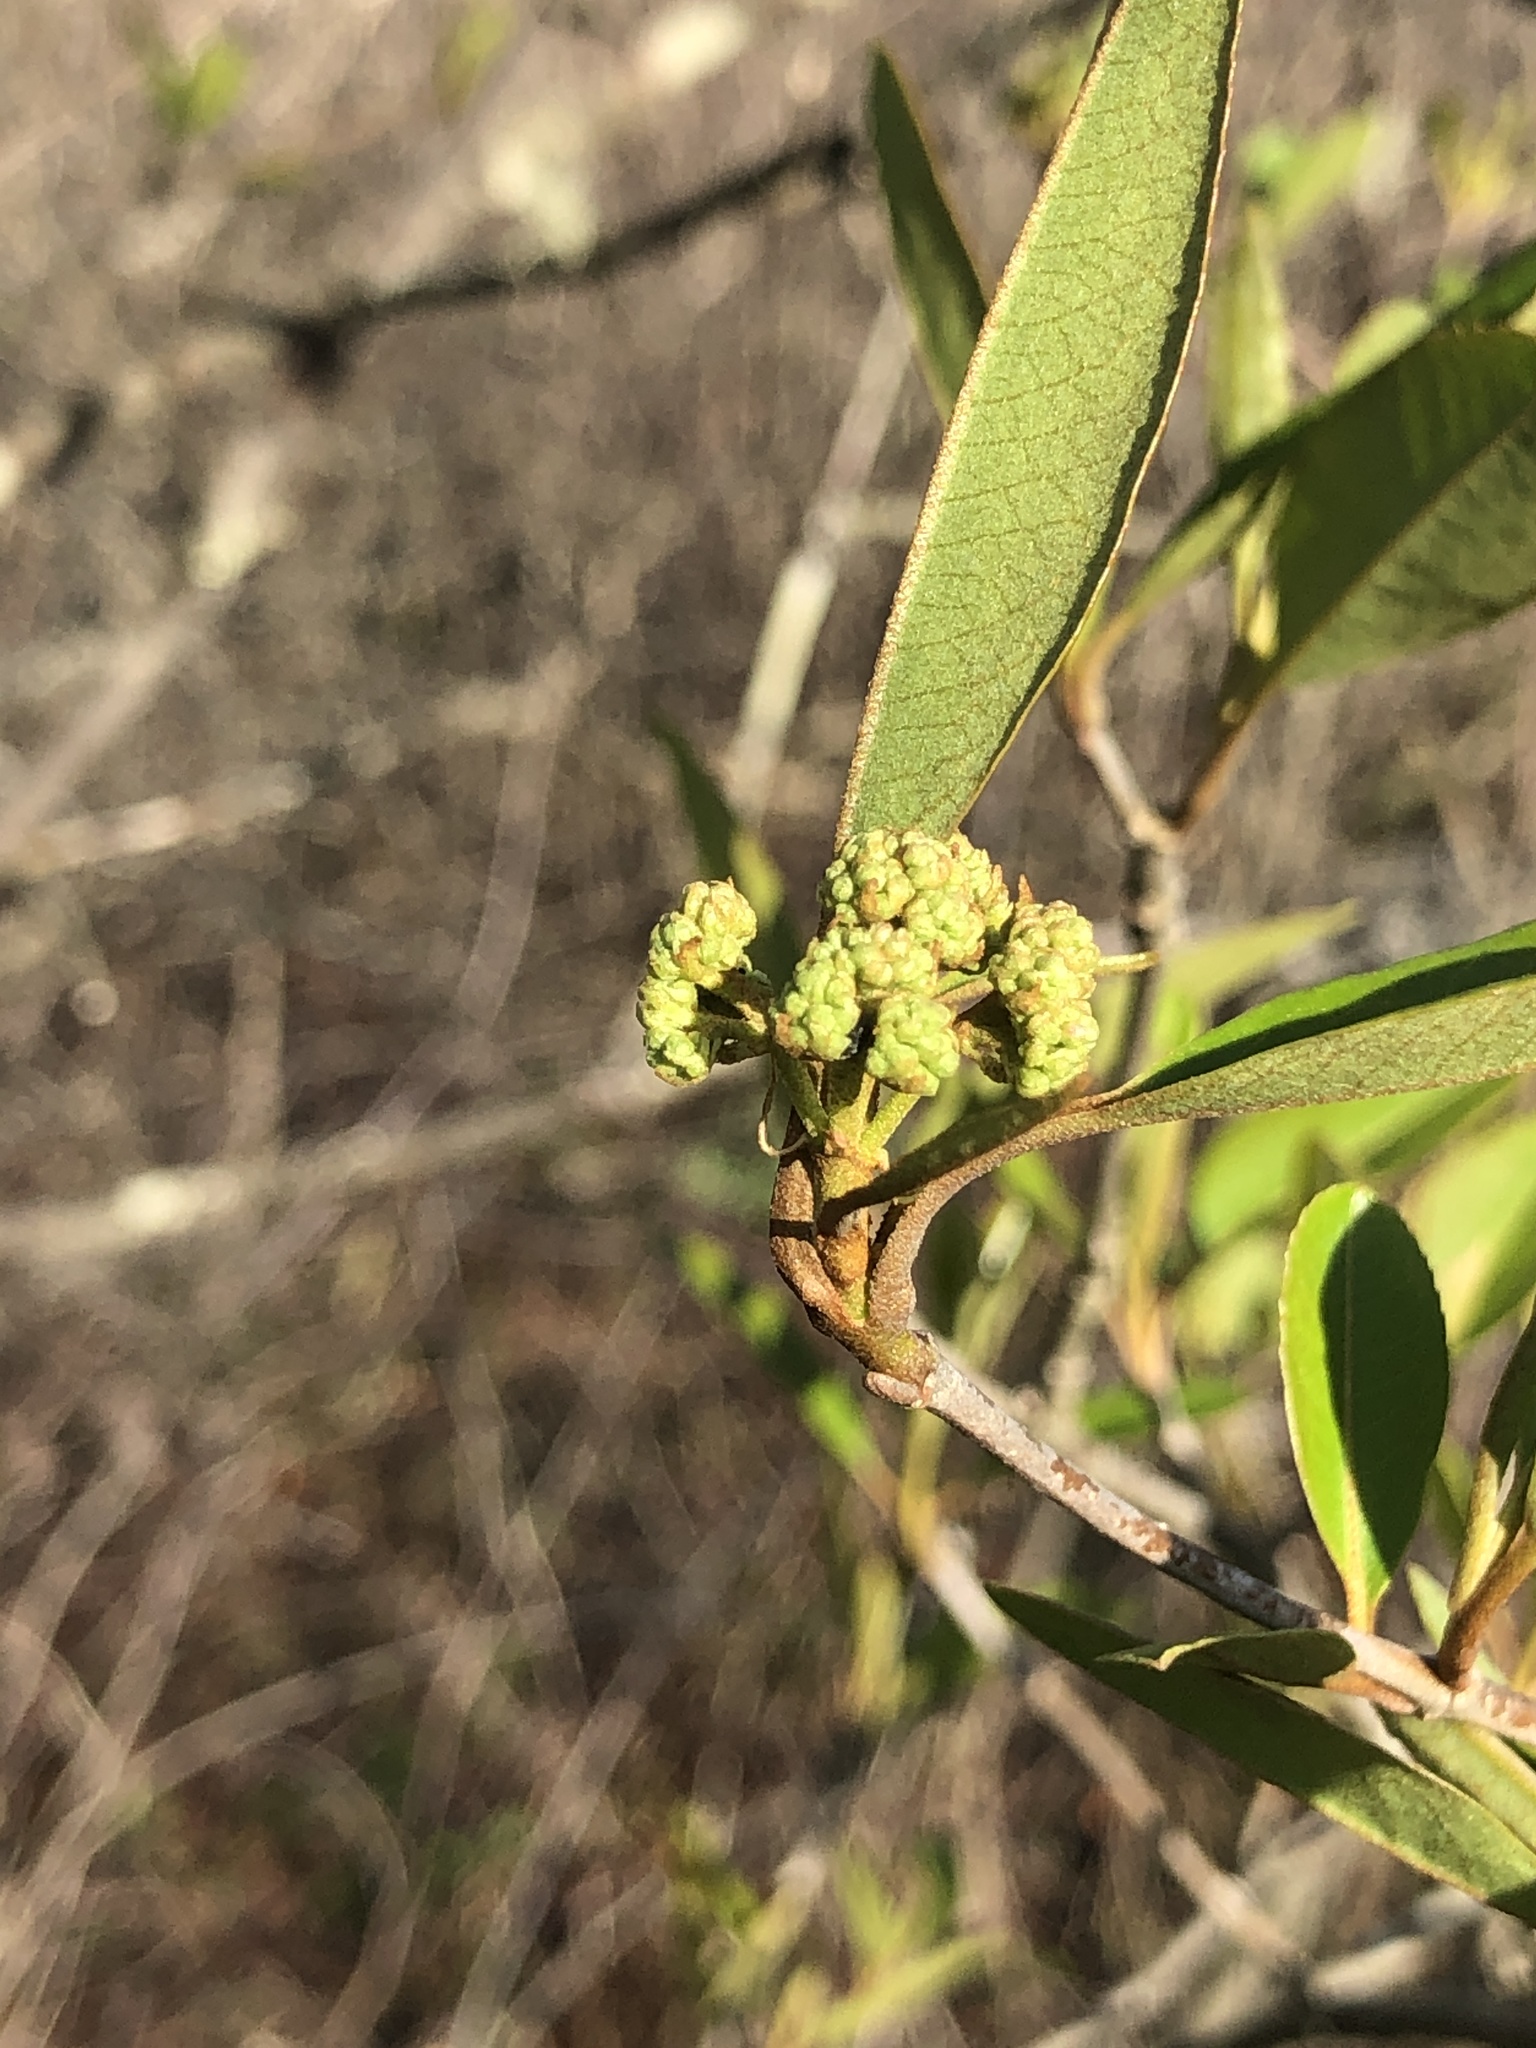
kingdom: Plantae
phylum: Tracheophyta
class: Magnoliopsida
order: Dipsacales
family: Viburnaceae
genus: Viburnum
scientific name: Viburnum cassinoides
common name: Swamp haw
